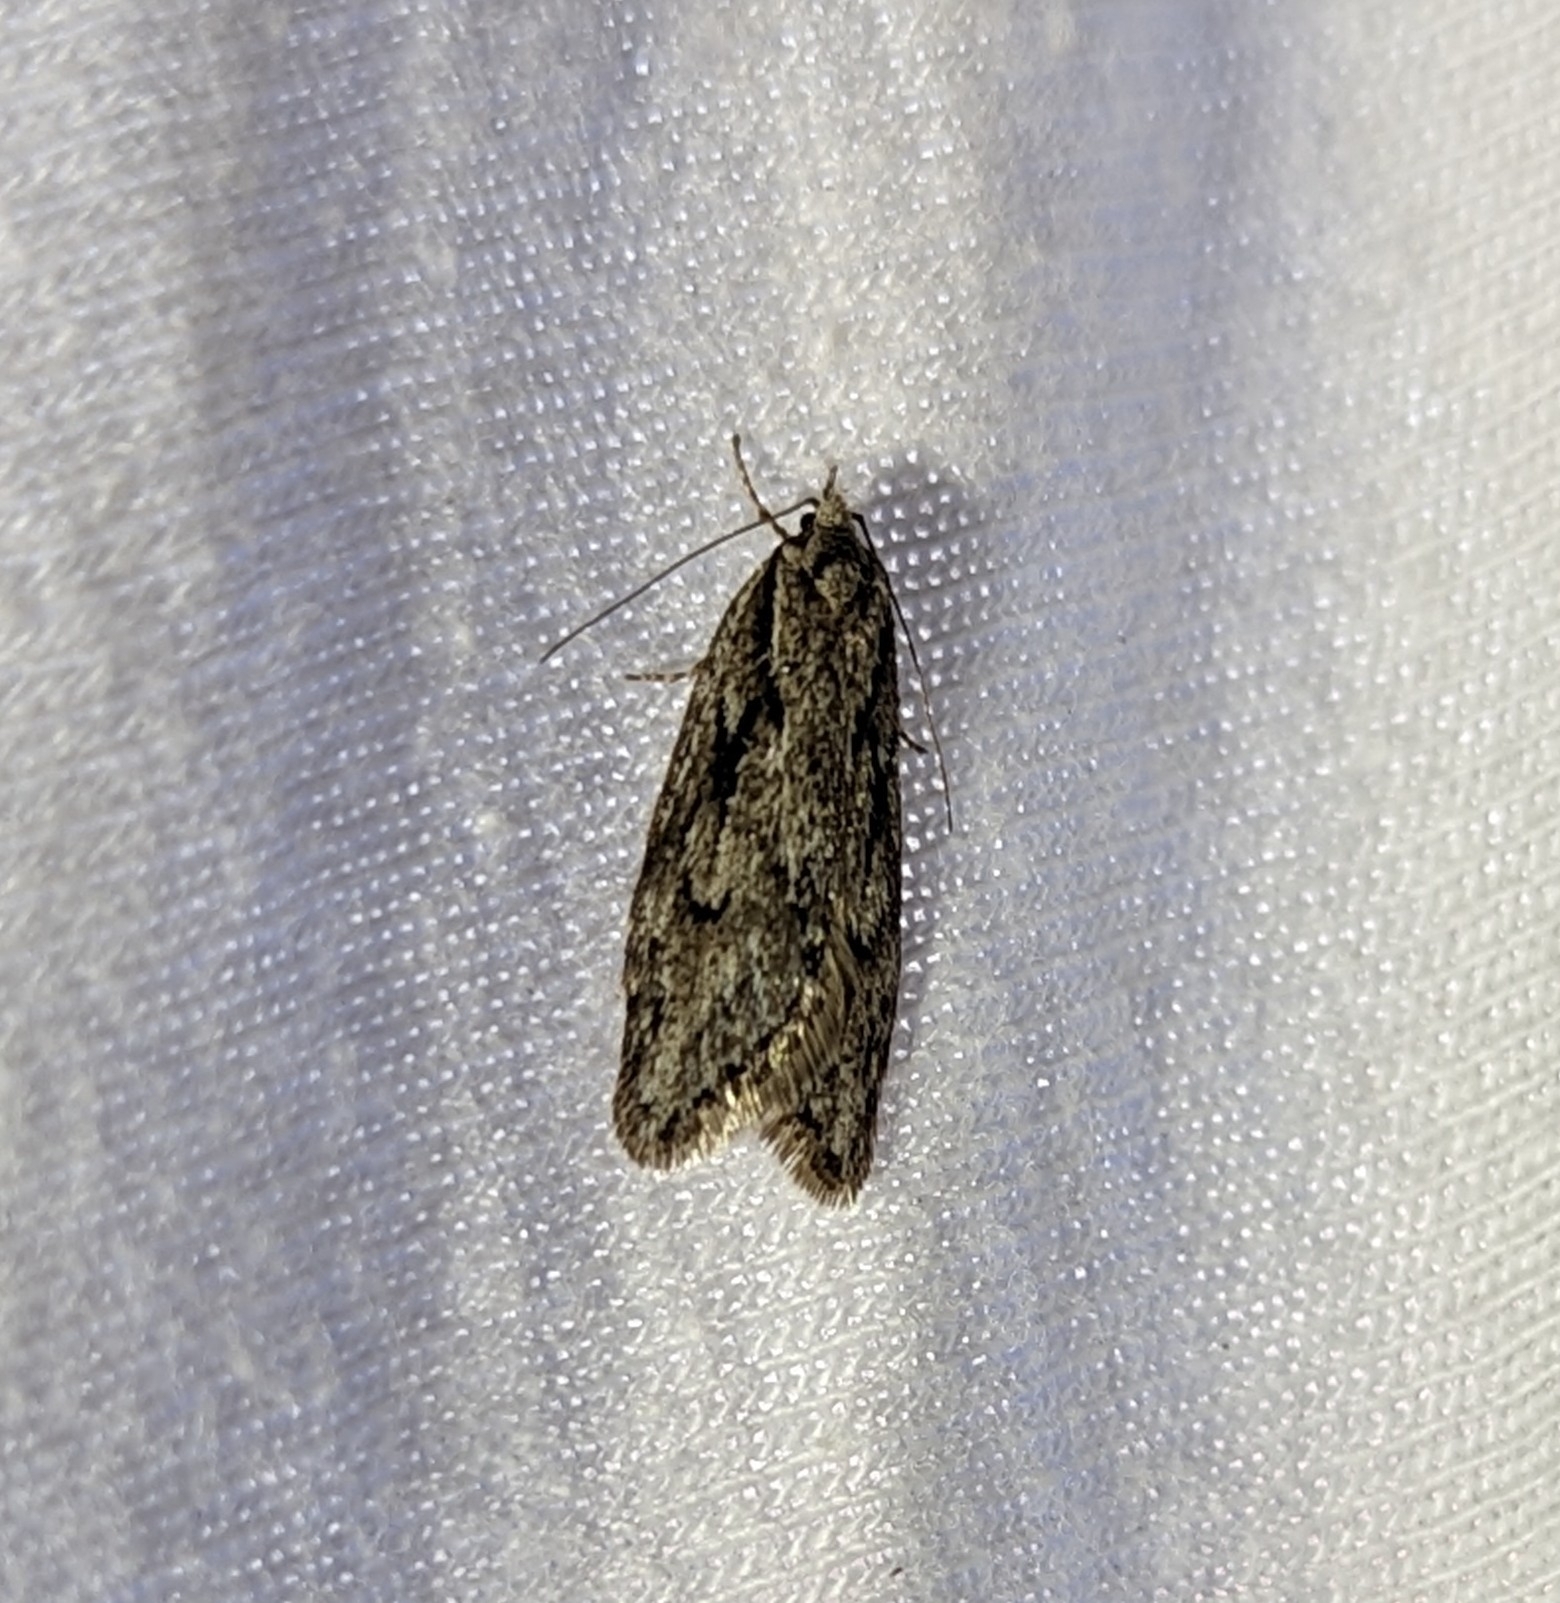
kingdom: Animalia
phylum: Arthropoda
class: Insecta
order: Lepidoptera
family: Depressariidae
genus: Semioscopis
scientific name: Semioscopis aurorella
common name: Aurora flatbody moth
